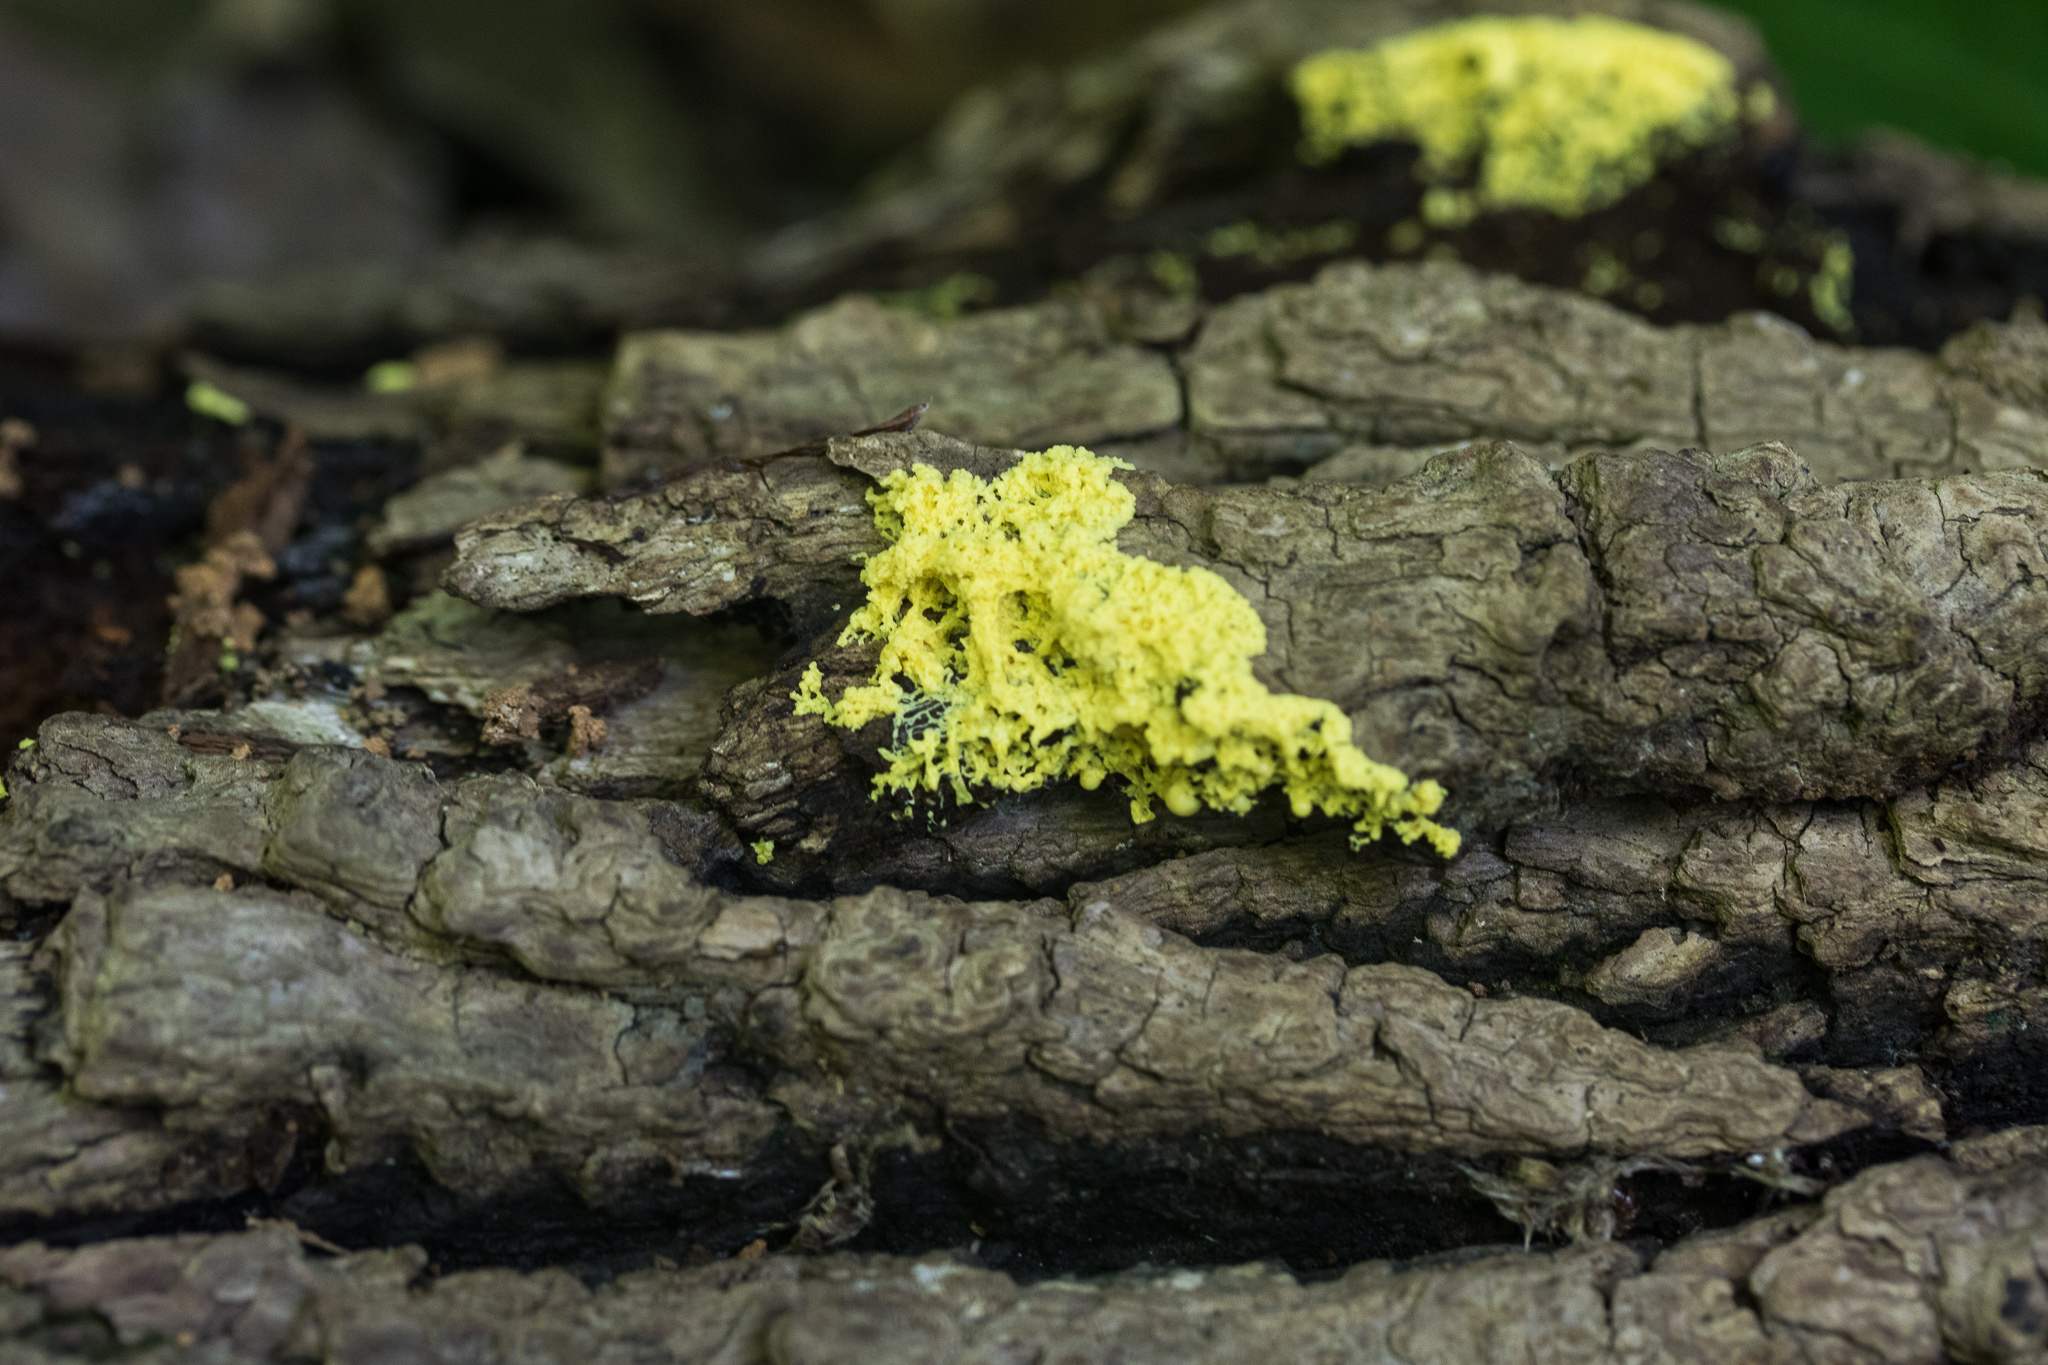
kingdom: Protozoa
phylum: Mycetozoa
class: Myxomycetes
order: Physarales
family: Physaraceae
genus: Fuligo
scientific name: Fuligo septica
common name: Dog vomit slime mold
